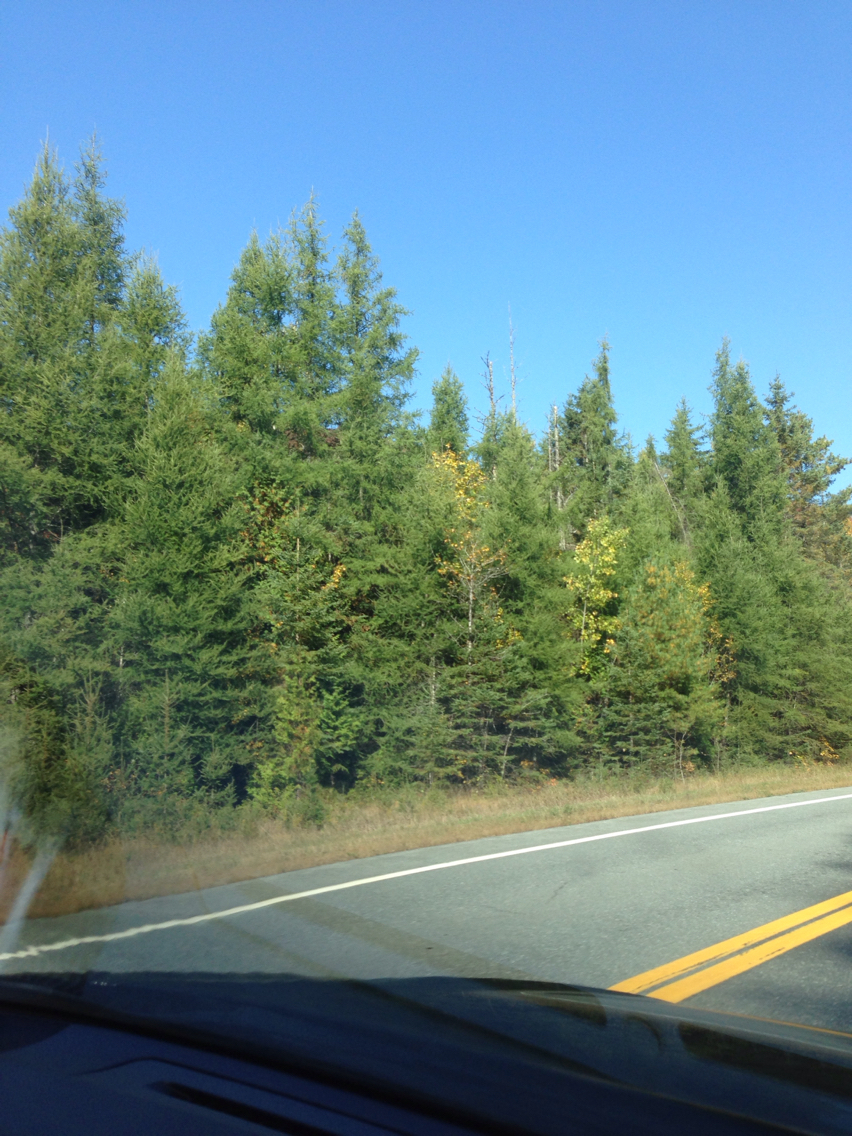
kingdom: Plantae
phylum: Tracheophyta
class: Pinopsida
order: Pinales
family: Pinaceae
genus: Larix
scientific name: Larix laricina
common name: American larch
